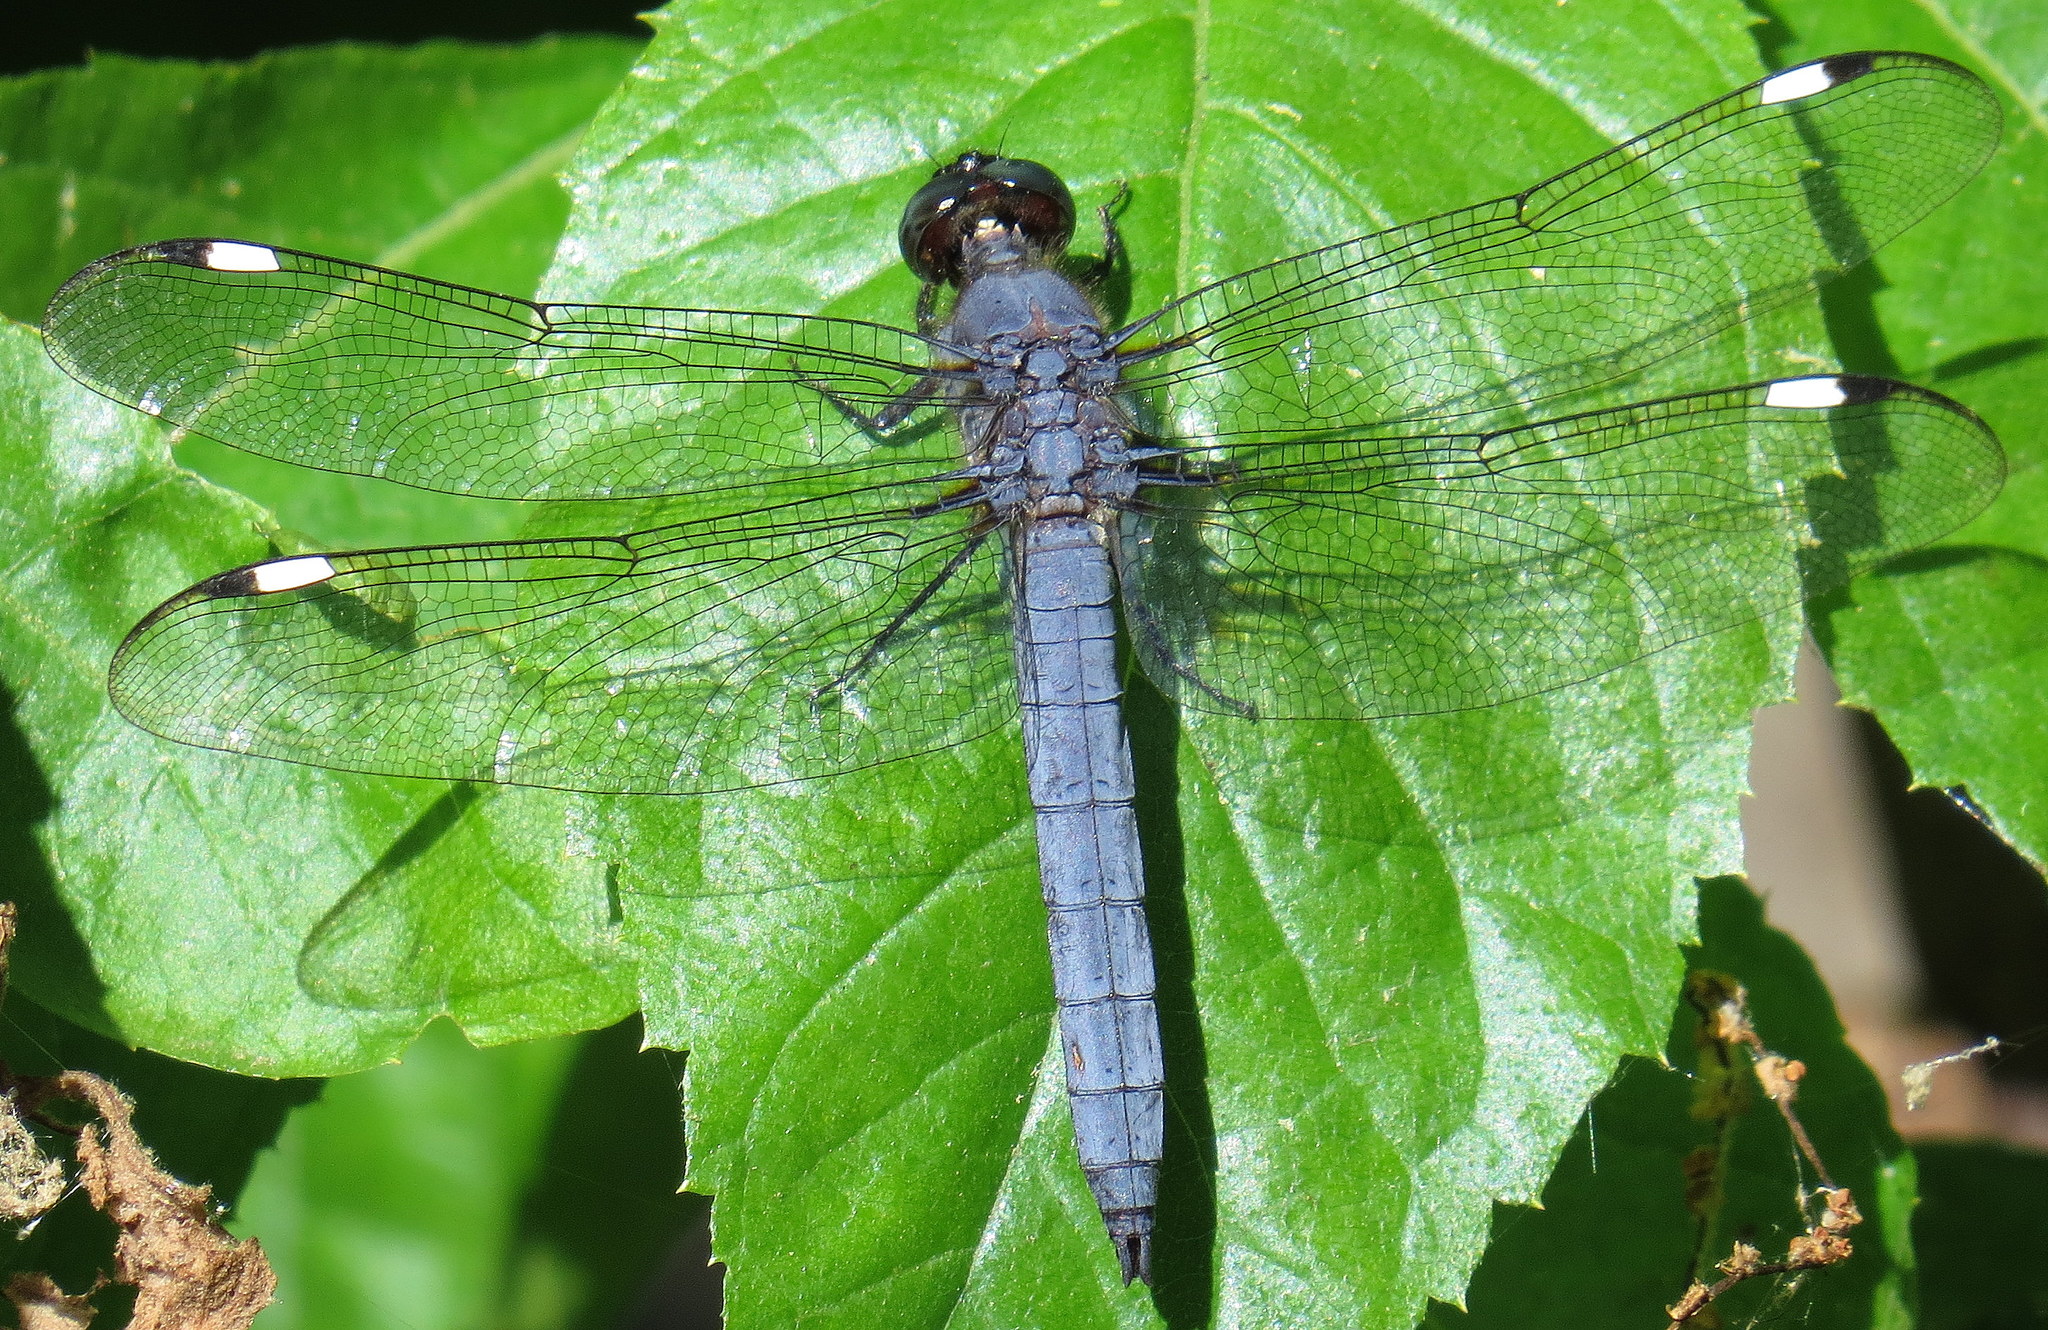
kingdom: Animalia
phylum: Arthropoda
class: Insecta
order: Odonata
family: Libellulidae
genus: Libellula
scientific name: Libellula cyanea
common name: Spangled skimmer
